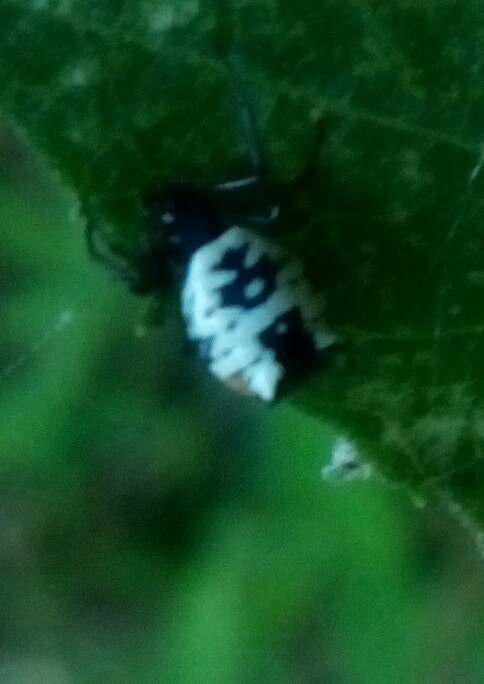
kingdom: Animalia
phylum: Arthropoda
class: Arachnida
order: Araneae
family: Araneidae
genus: Micrathena
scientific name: Micrathena mitrata
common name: Orb weavers
